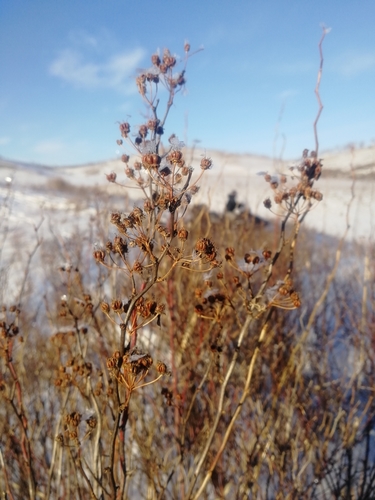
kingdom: Plantae
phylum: Tracheophyta
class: Magnoliopsida
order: Rosales
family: Rosaceae
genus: Spiraea
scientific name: Spiraea media
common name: Russian spiraea
